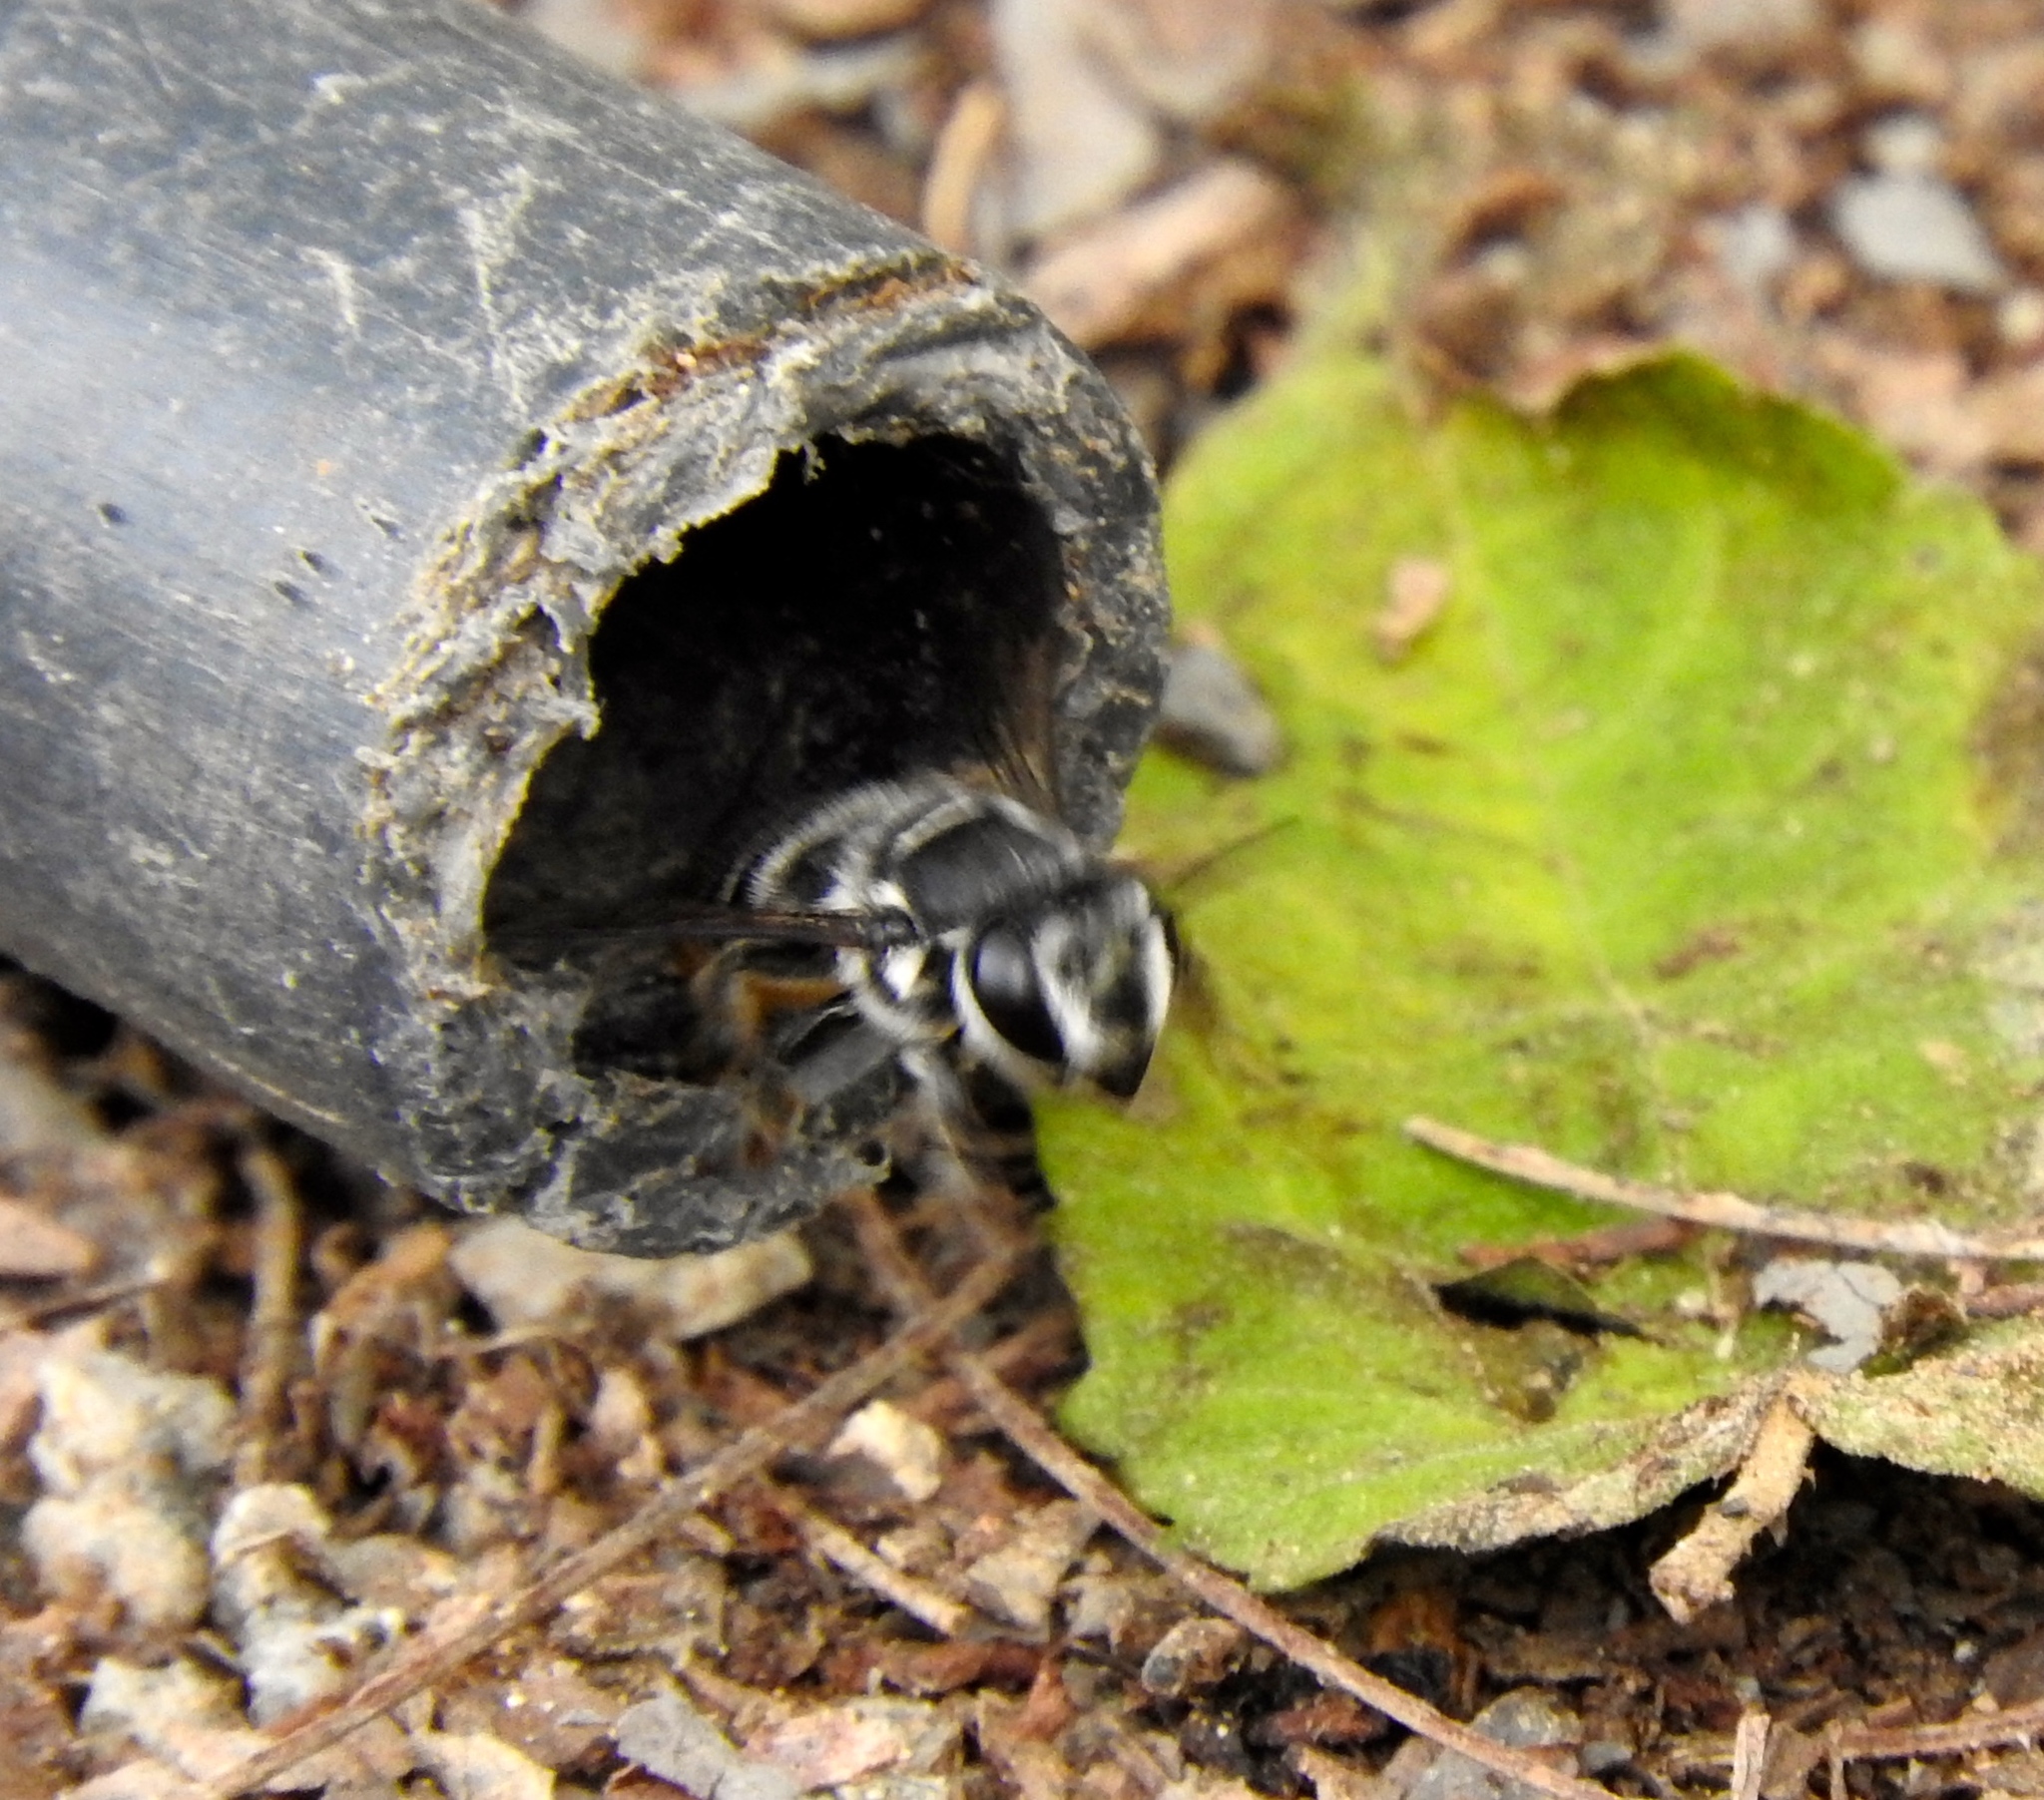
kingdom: Animalia
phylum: Arthropoda
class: Insecta
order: Hymenoptera
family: Megachilidae
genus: Megachile
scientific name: Megachile
